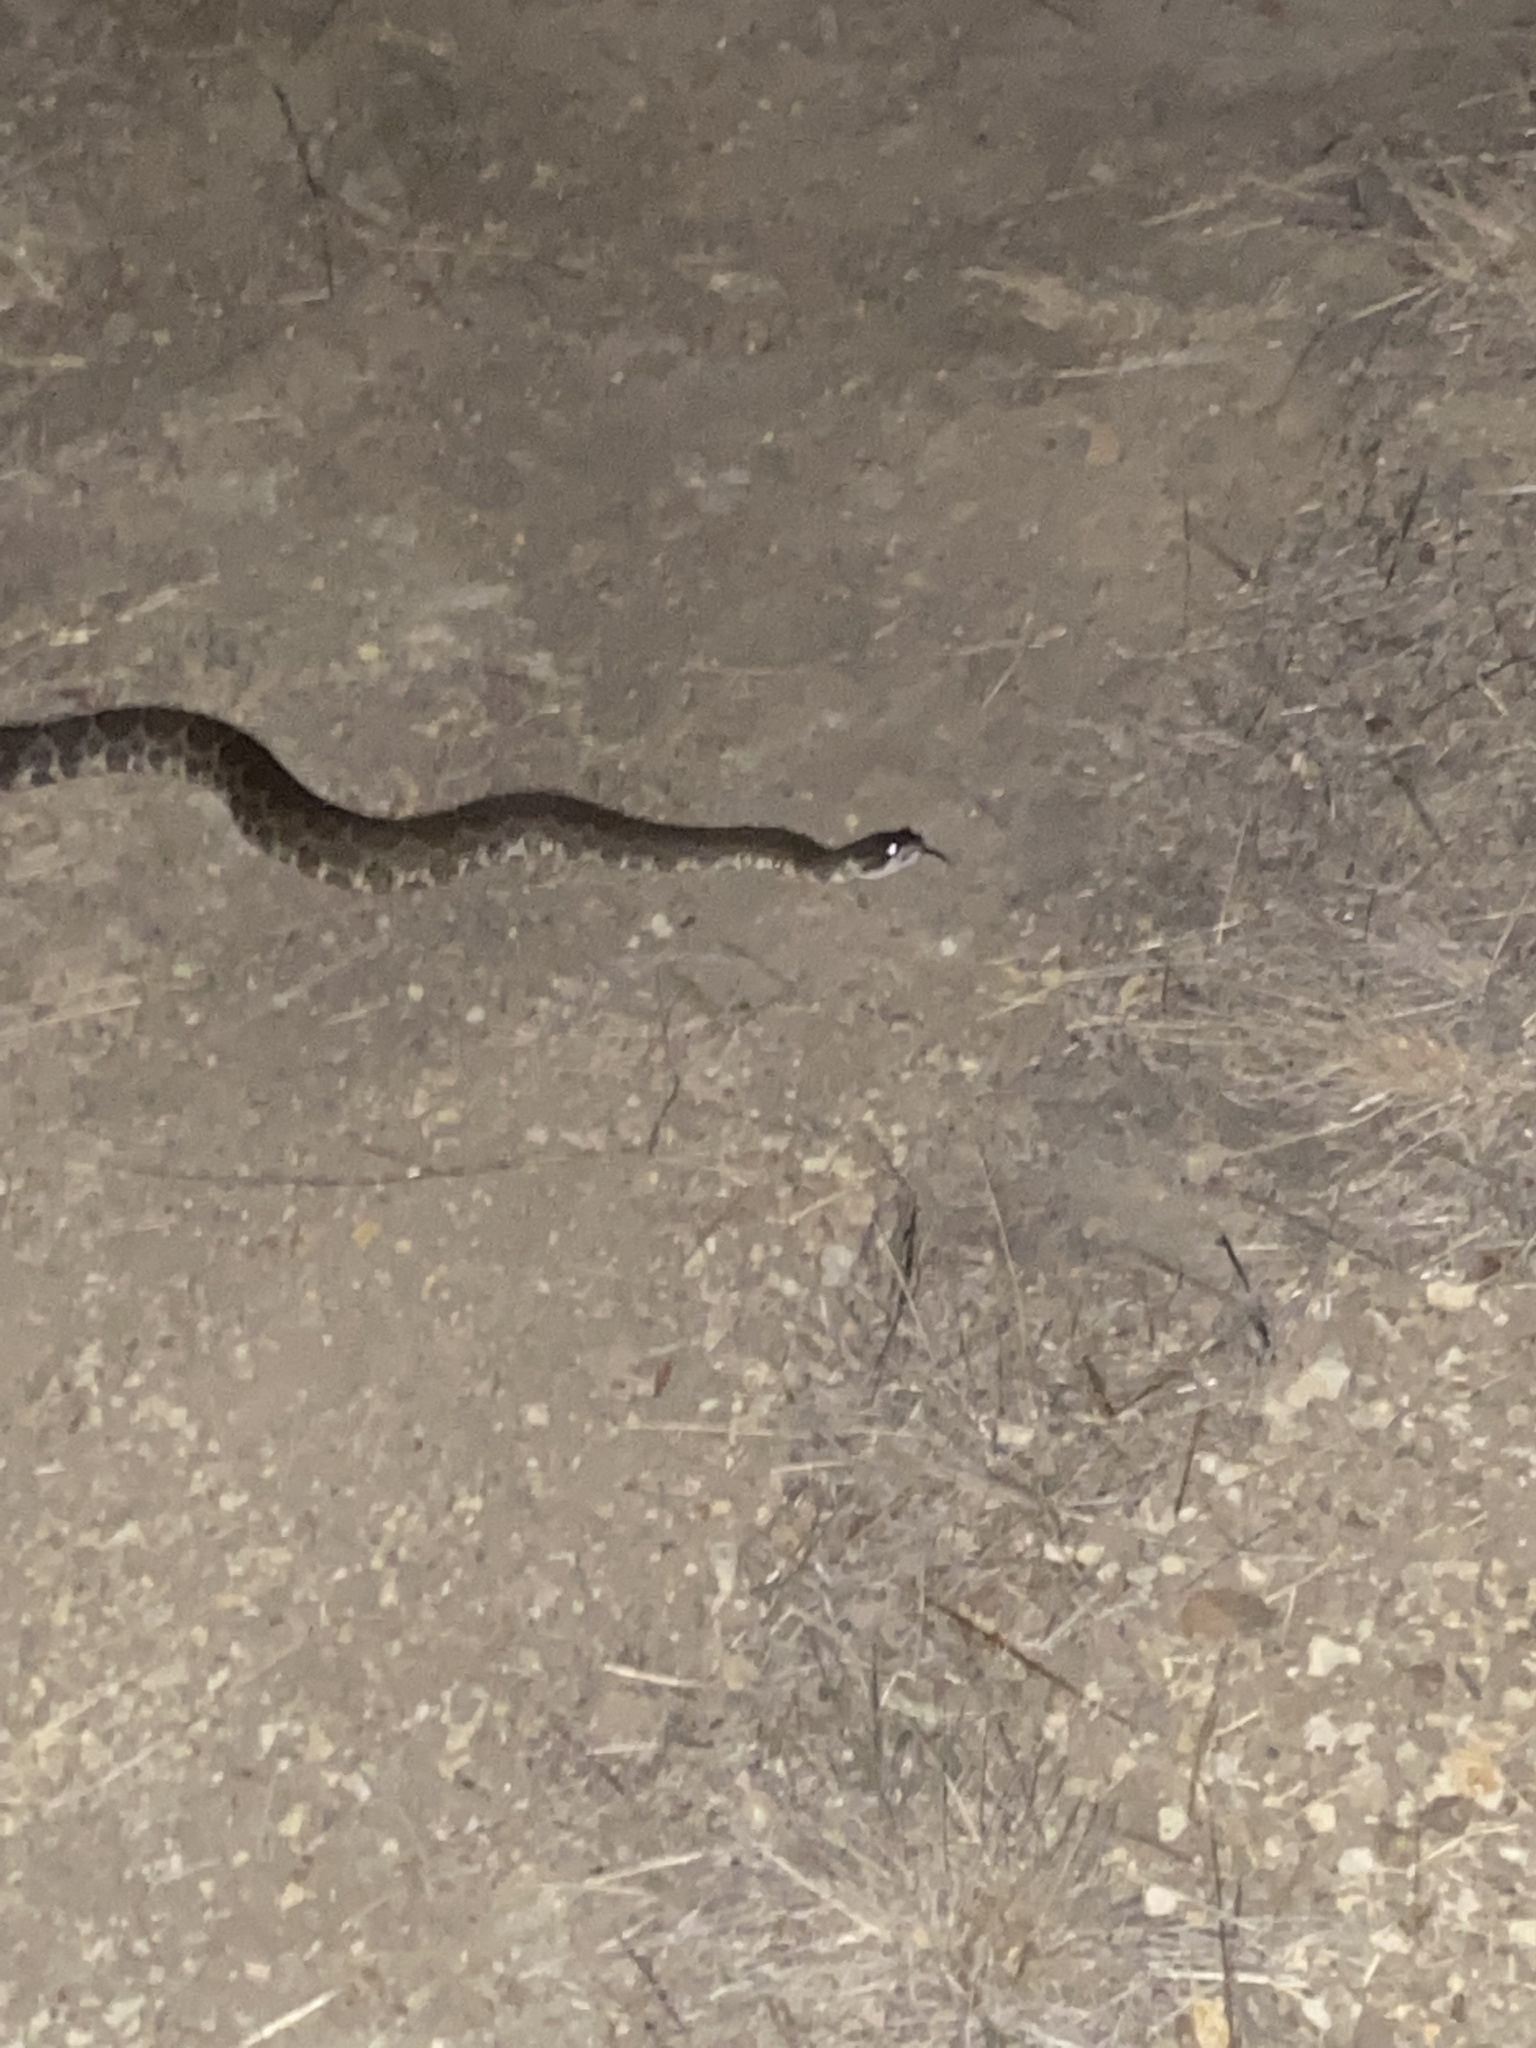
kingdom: Animalia
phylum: Chordata
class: Squamata
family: Viperidae
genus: Crotalus
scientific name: Crotalus oreganus
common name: Abyssus
